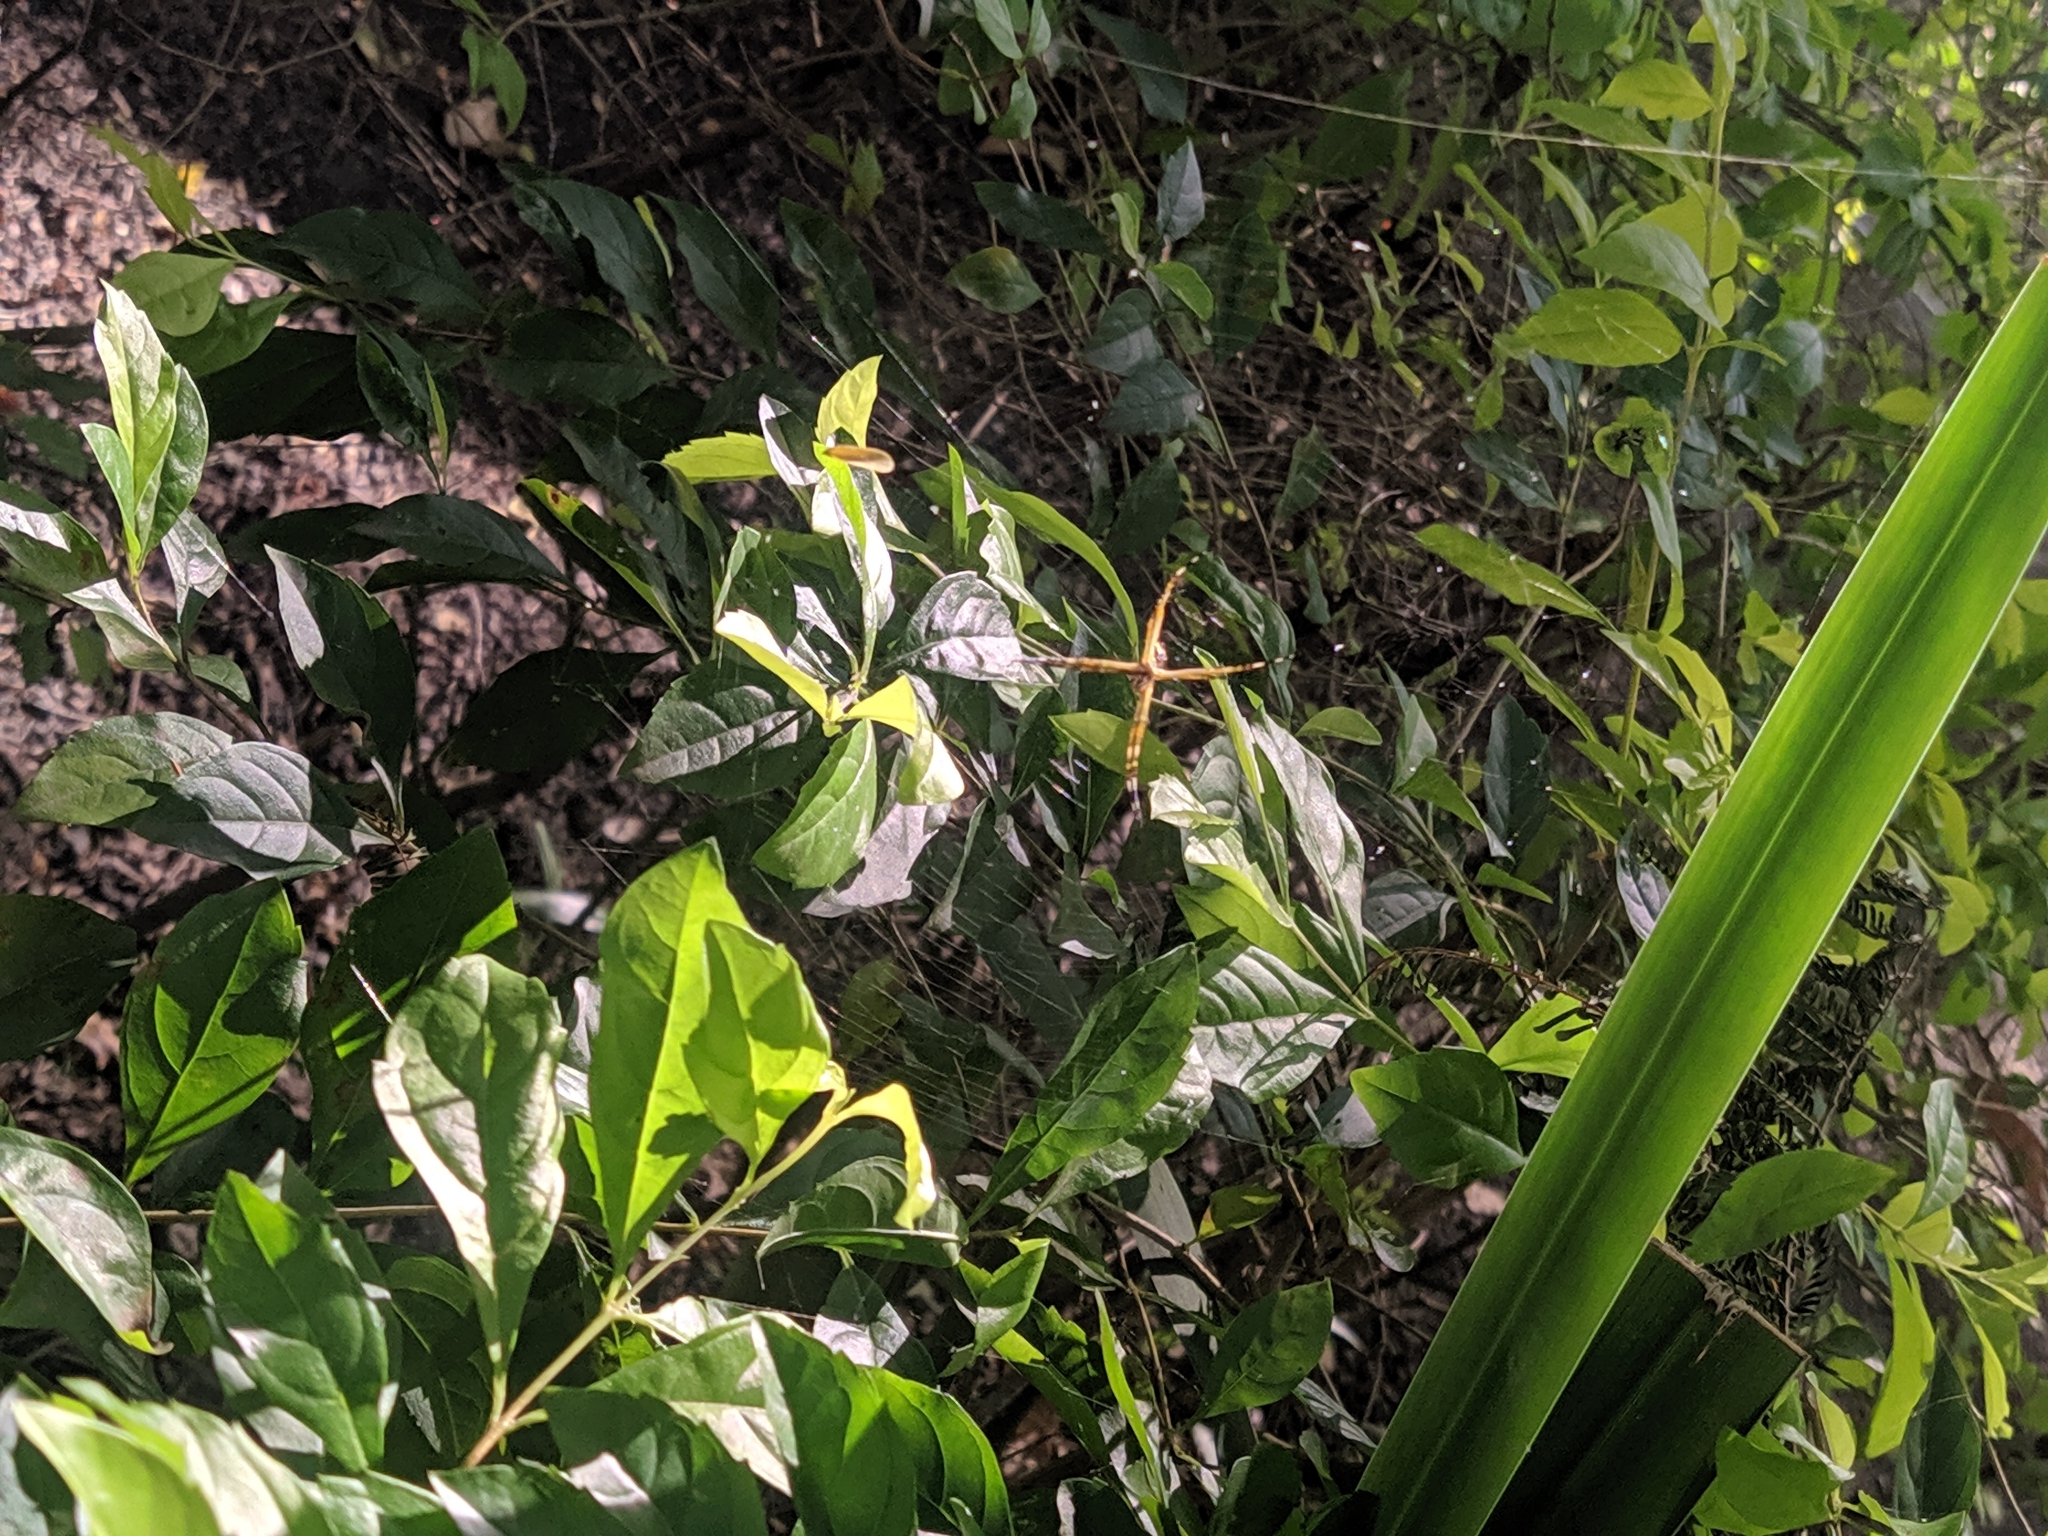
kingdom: Animalia
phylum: Arthropoda
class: Arachnida
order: Araneae
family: Araneidae
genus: Argiope
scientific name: Argiope argentata
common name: Orb weavers
